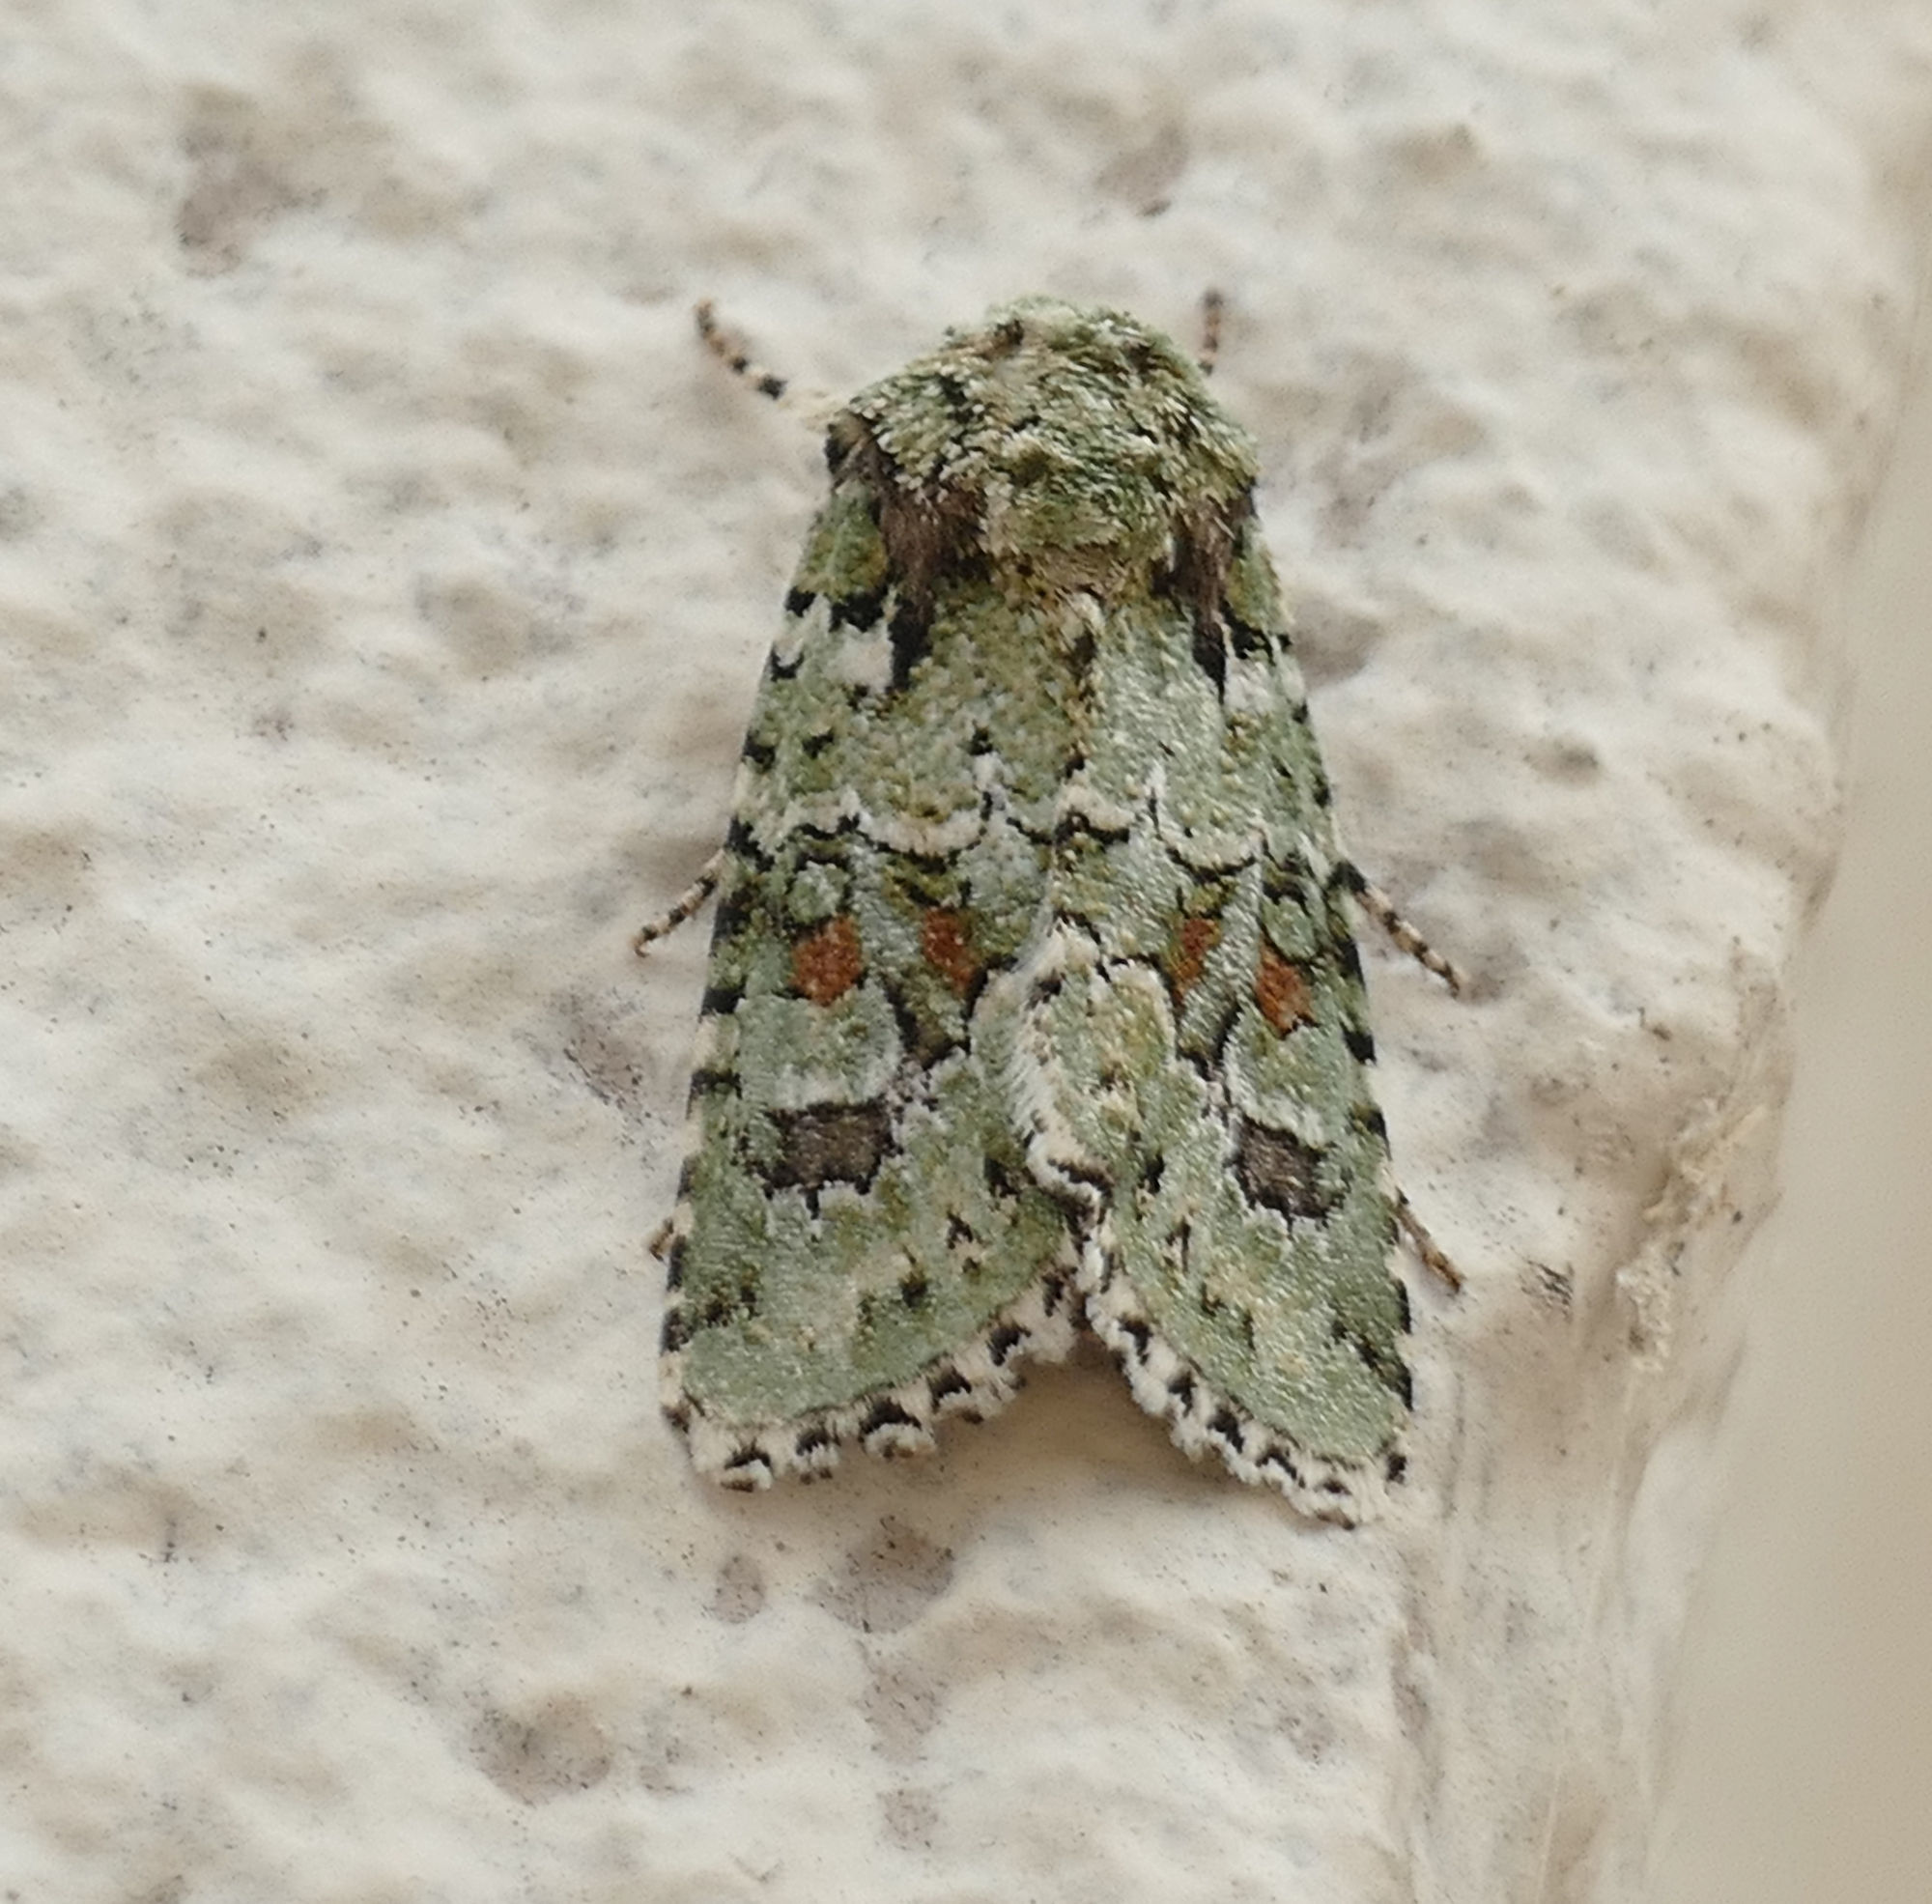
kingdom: Animalia
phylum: Arthropoda
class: Insecta
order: Lepidoptera
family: Noctuidae
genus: Lacinipolia
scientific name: Lacinipolia laudabilis
